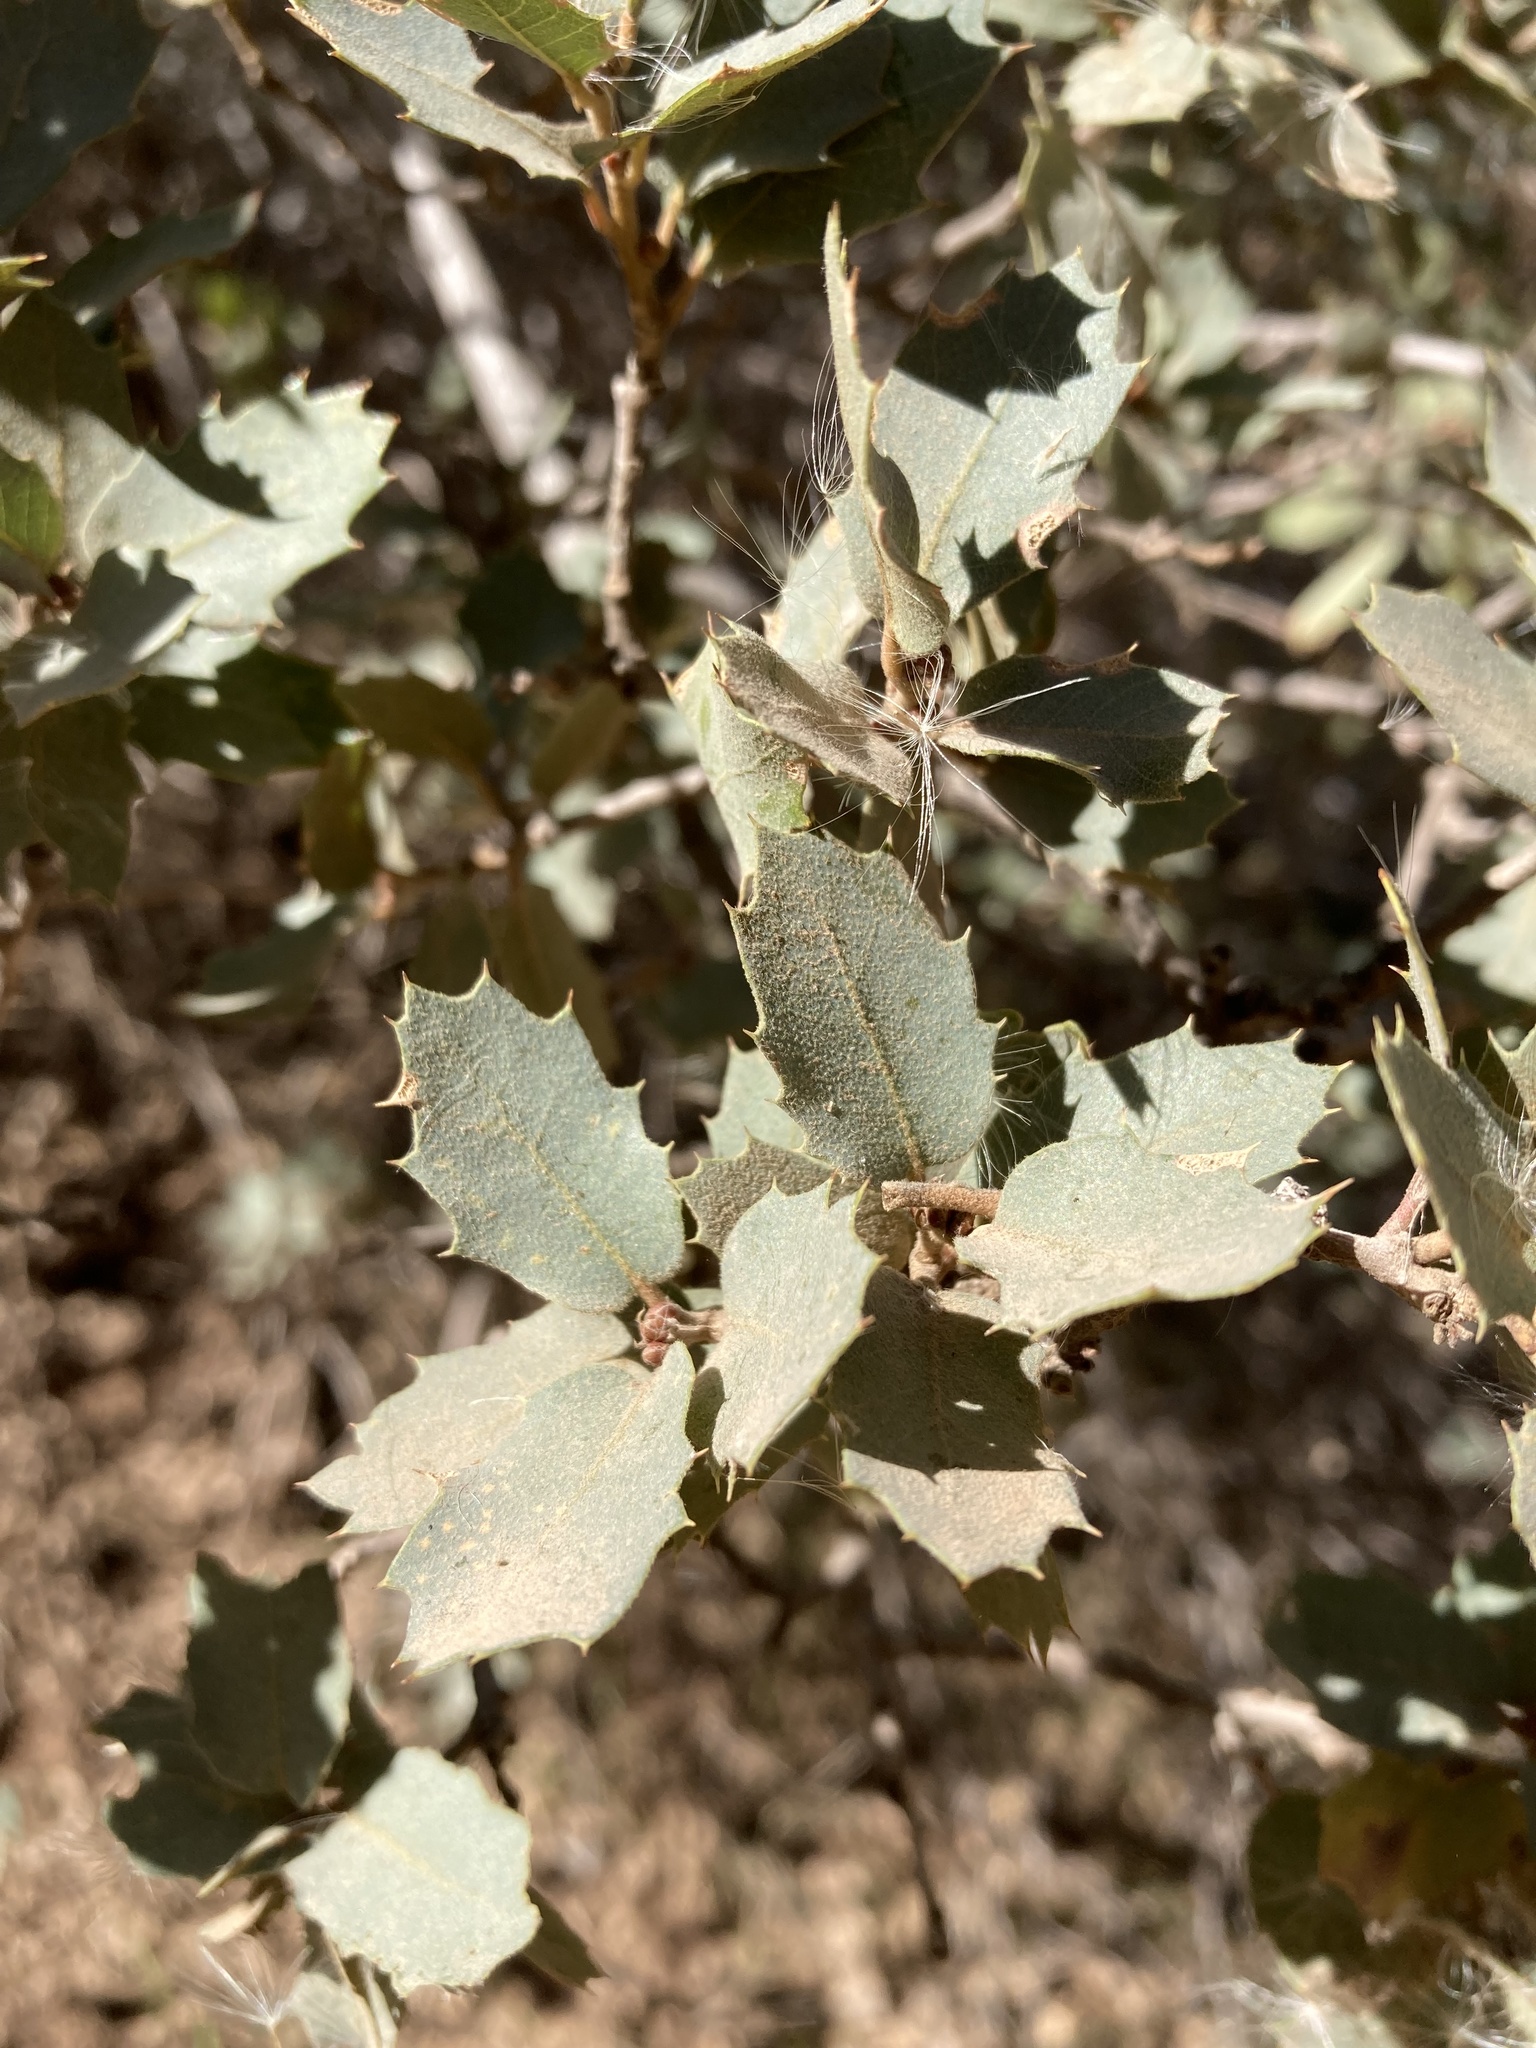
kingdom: Plantae
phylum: Tracheophyta
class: Magnoliopsida
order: Fagales
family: Fagaceae
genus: Quercus
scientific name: Quercus turbinella
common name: Sonoran scrub oak
